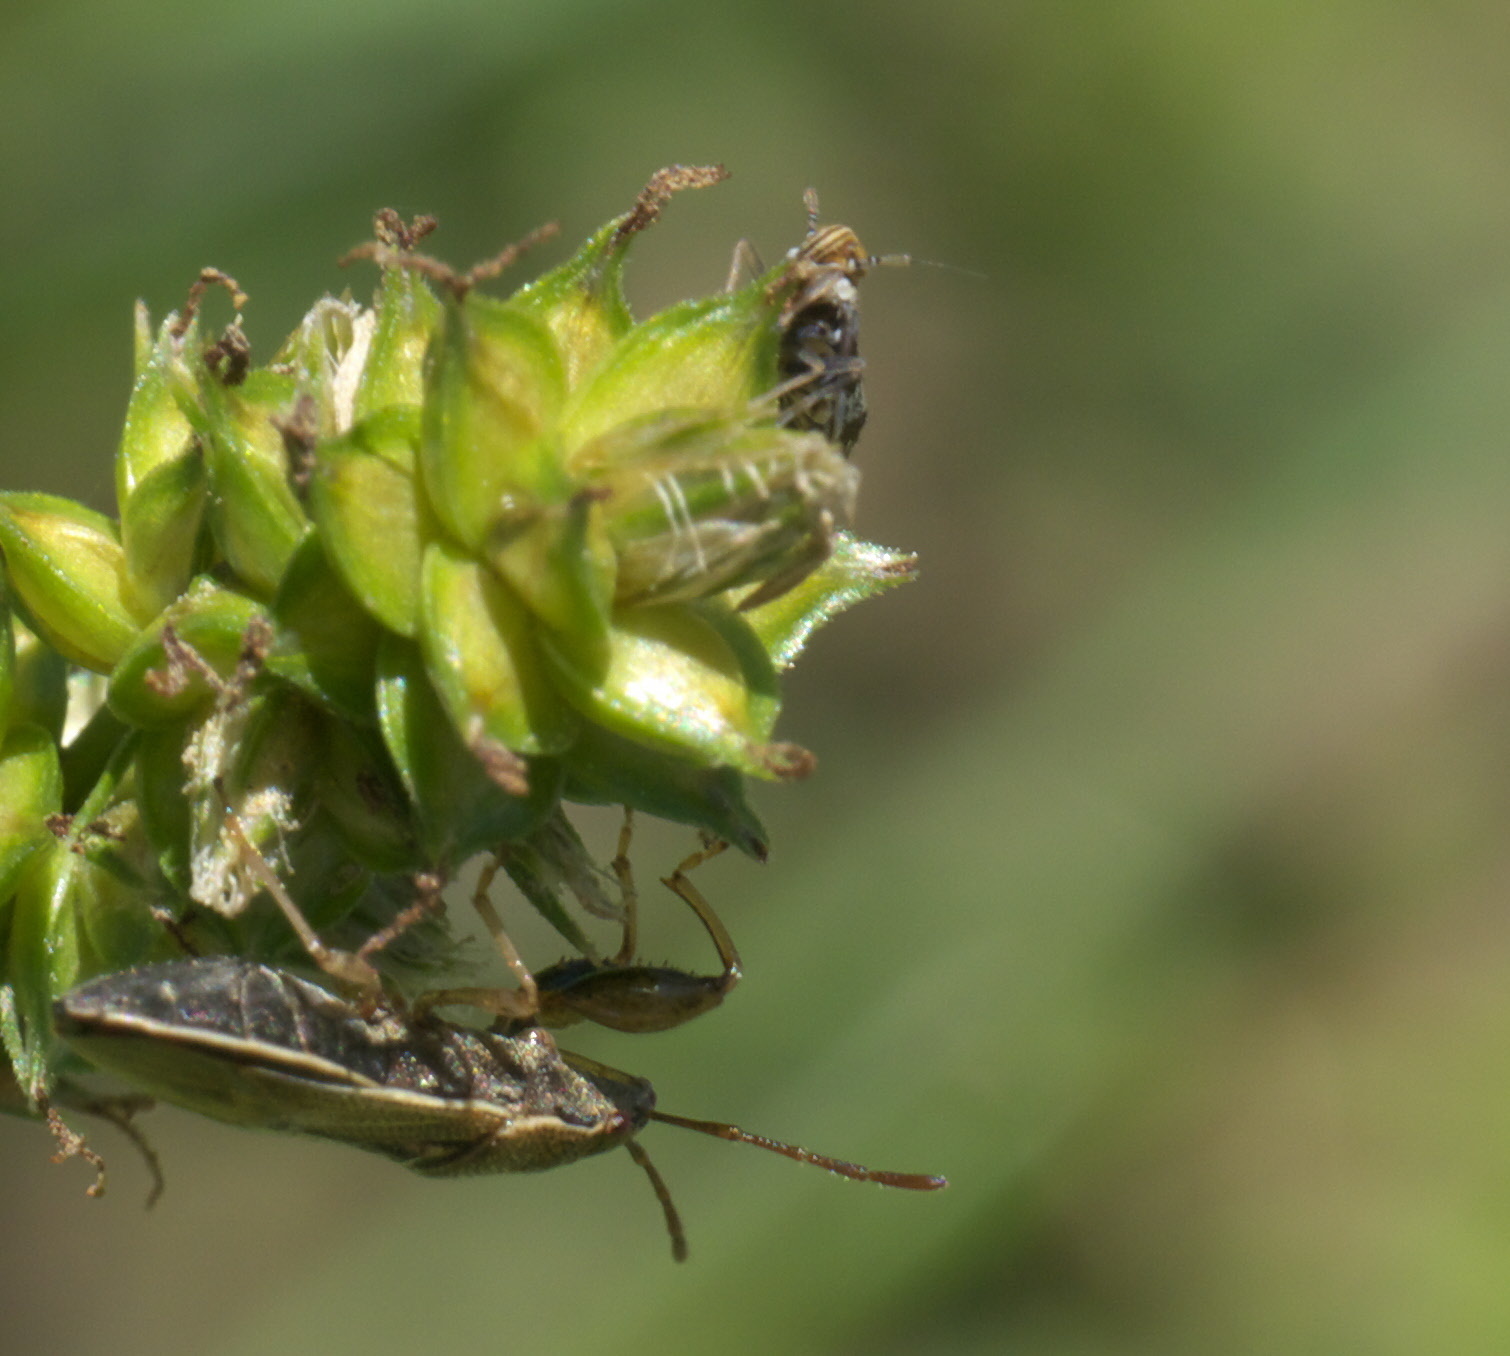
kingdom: Animalia
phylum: Arthropoda
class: Insecta
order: Hemiptera
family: Delphacidae
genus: Liburniella
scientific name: Liburniella ornata
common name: Ornate planthopper
